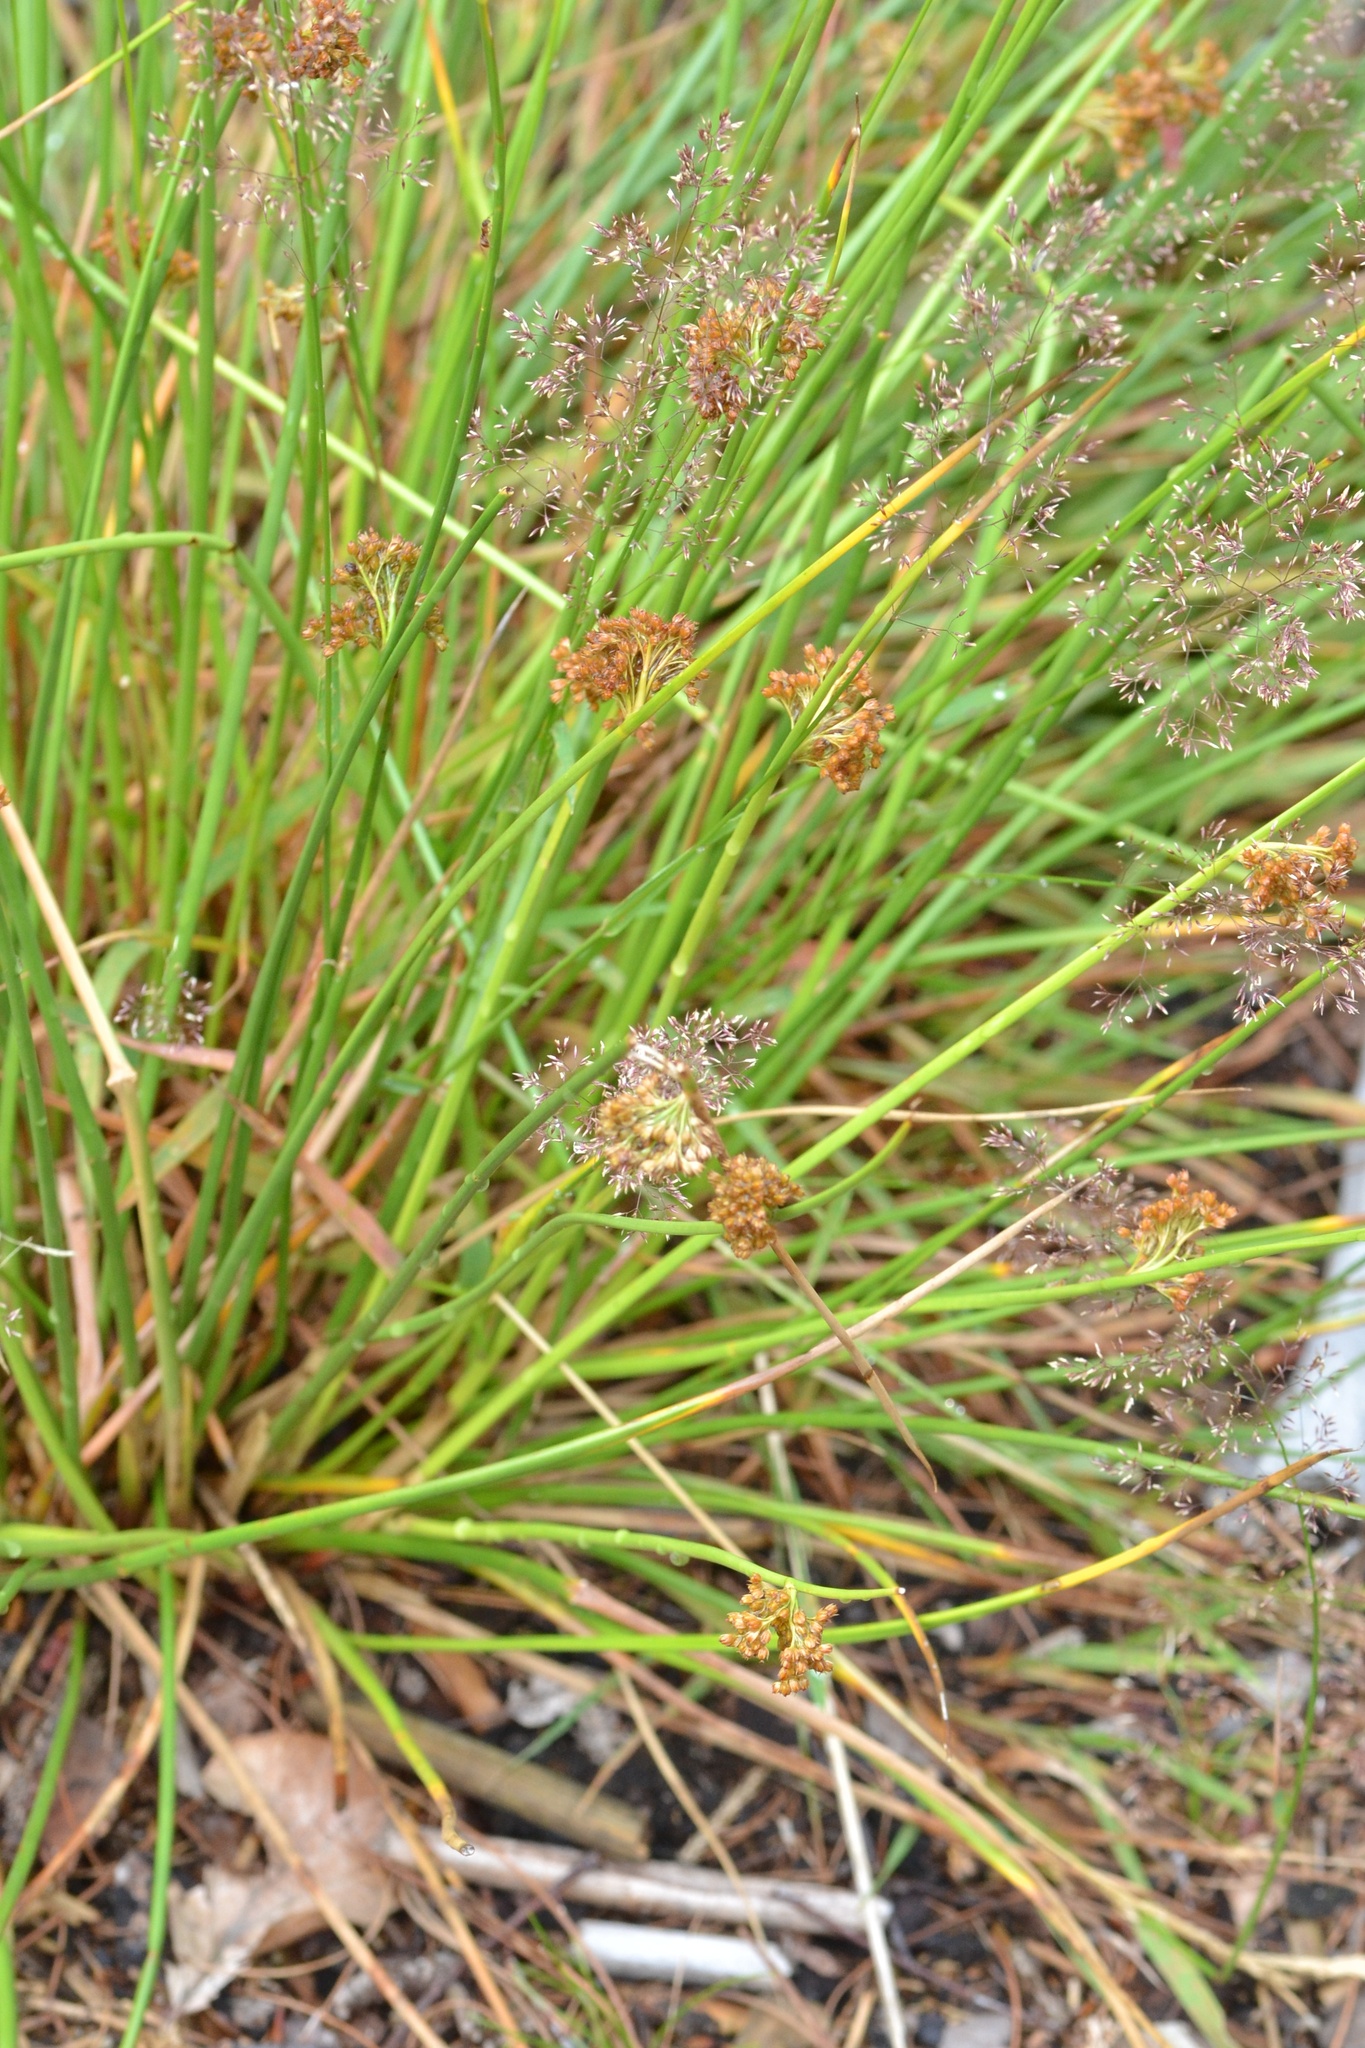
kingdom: Plantae
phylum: Tracheophyta
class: Liliopsida
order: Poales
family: Juncaceae
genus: Juncus
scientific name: Juncus effusus
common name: Soft rush
